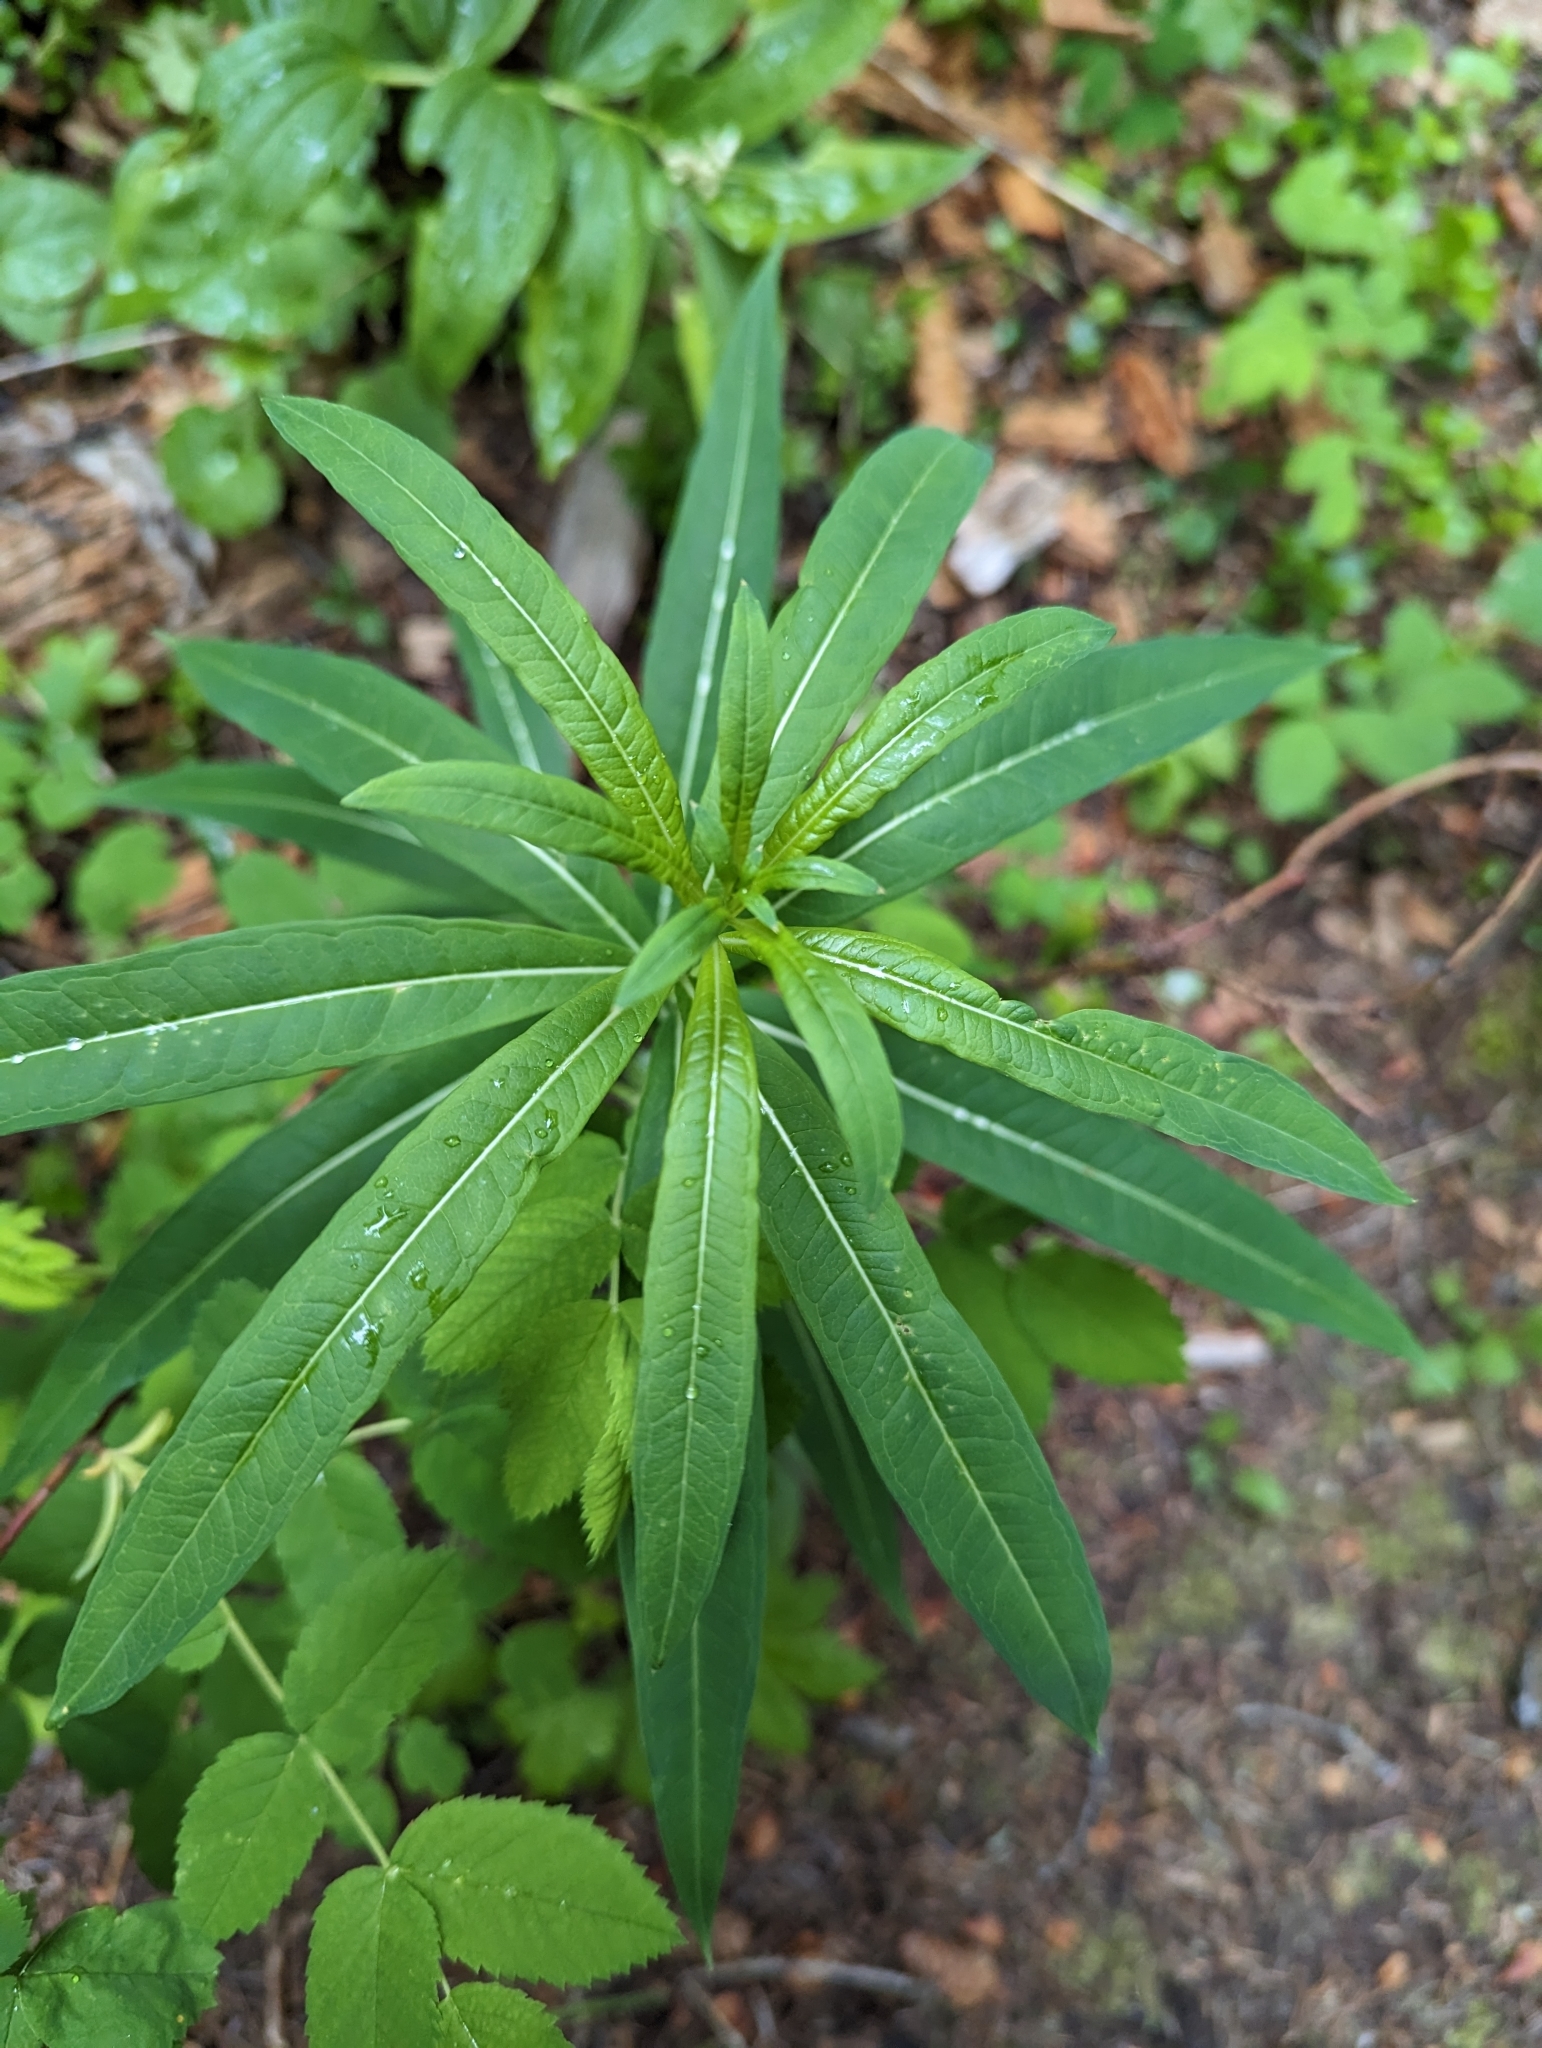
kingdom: Plantae
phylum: Tracheophyta
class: Magnoliopsida
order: Myrtales
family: Onagraceae
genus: Chamaenerion
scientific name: Chamaenerion angustifolium
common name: Fireweed
